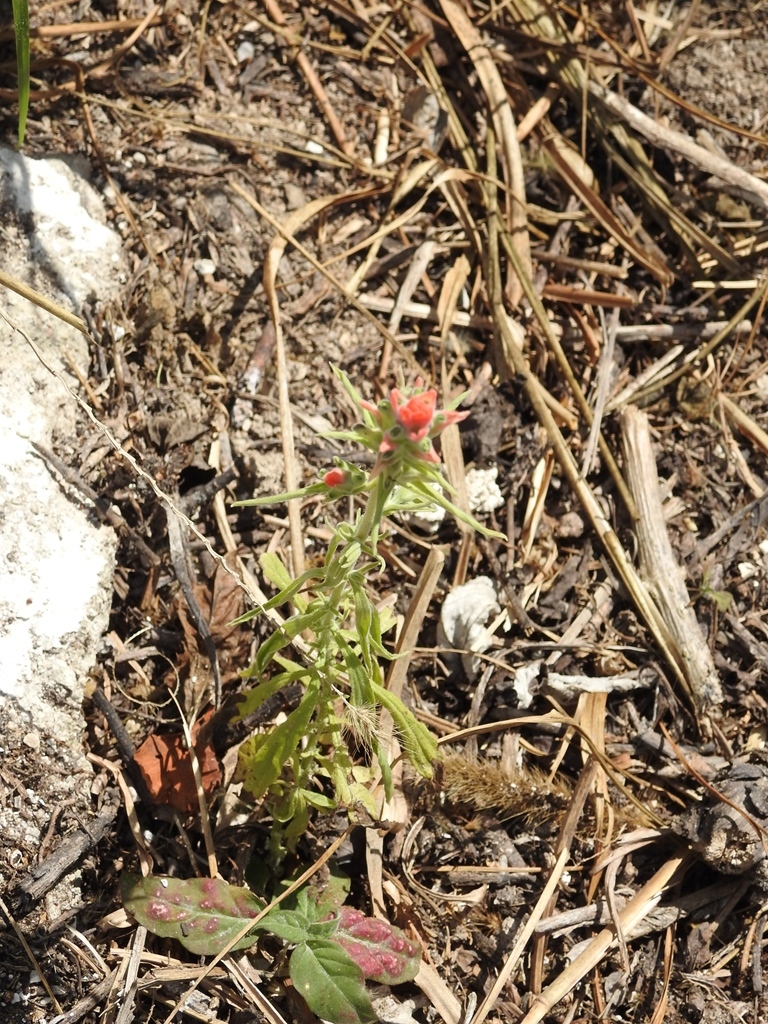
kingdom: Plantae
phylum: Tracheophyta
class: Magnoliopsida
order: Lamiales
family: Orobanchaceae
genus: Castilleja
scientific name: Castilleja arvensis
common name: Indian paintbrush
